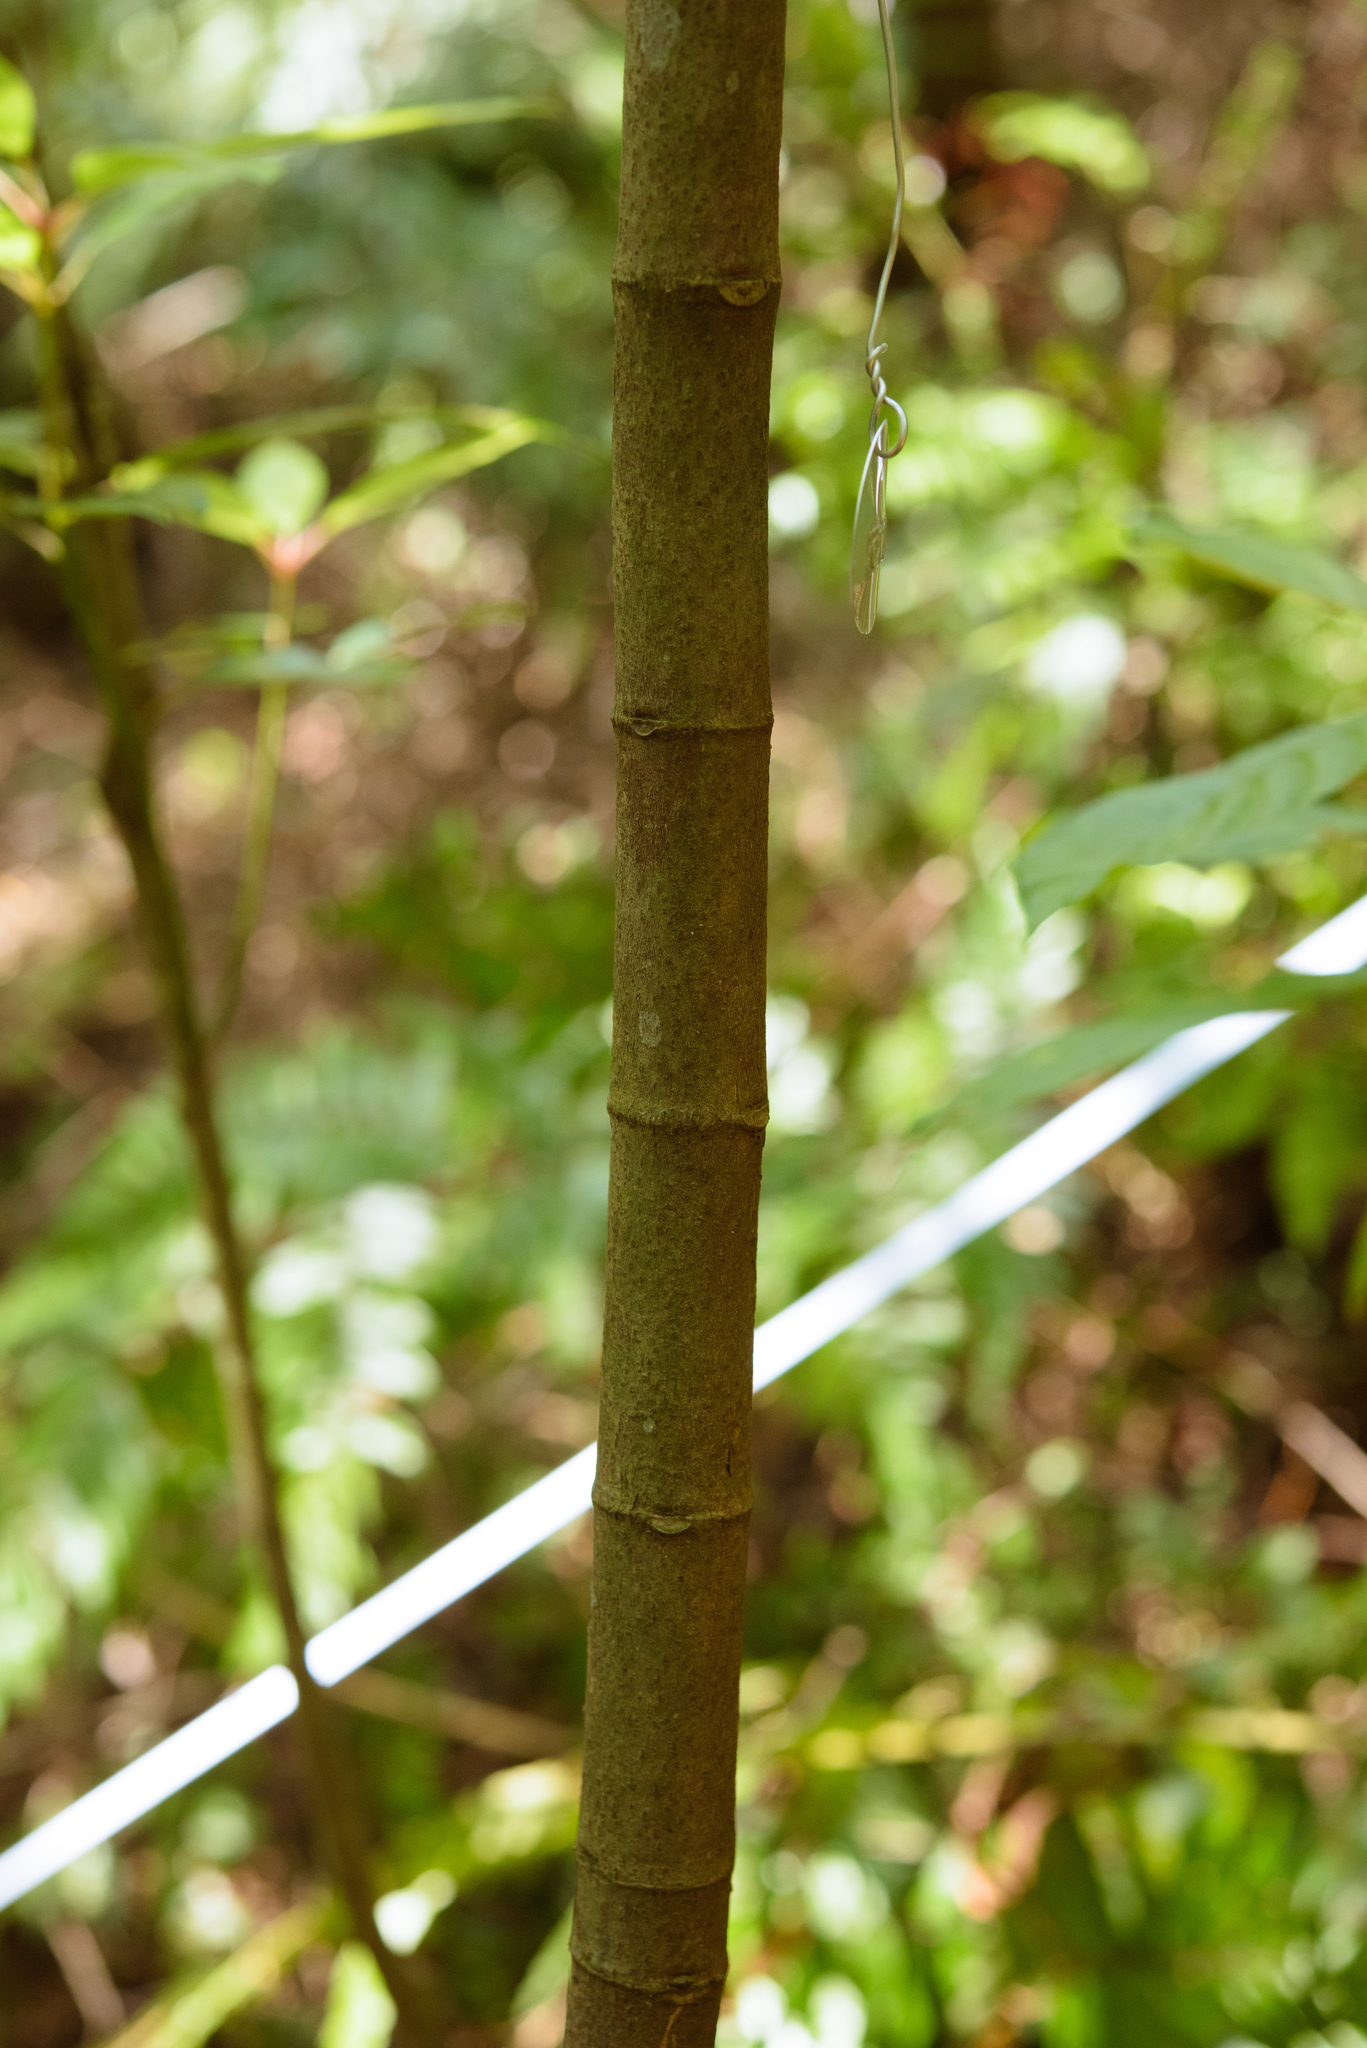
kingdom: Plantae
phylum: Tracheophyta
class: Magnoliopsida
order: Gentianales
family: Rubiaceae
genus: Psychotria
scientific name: Psychotria asiatica
